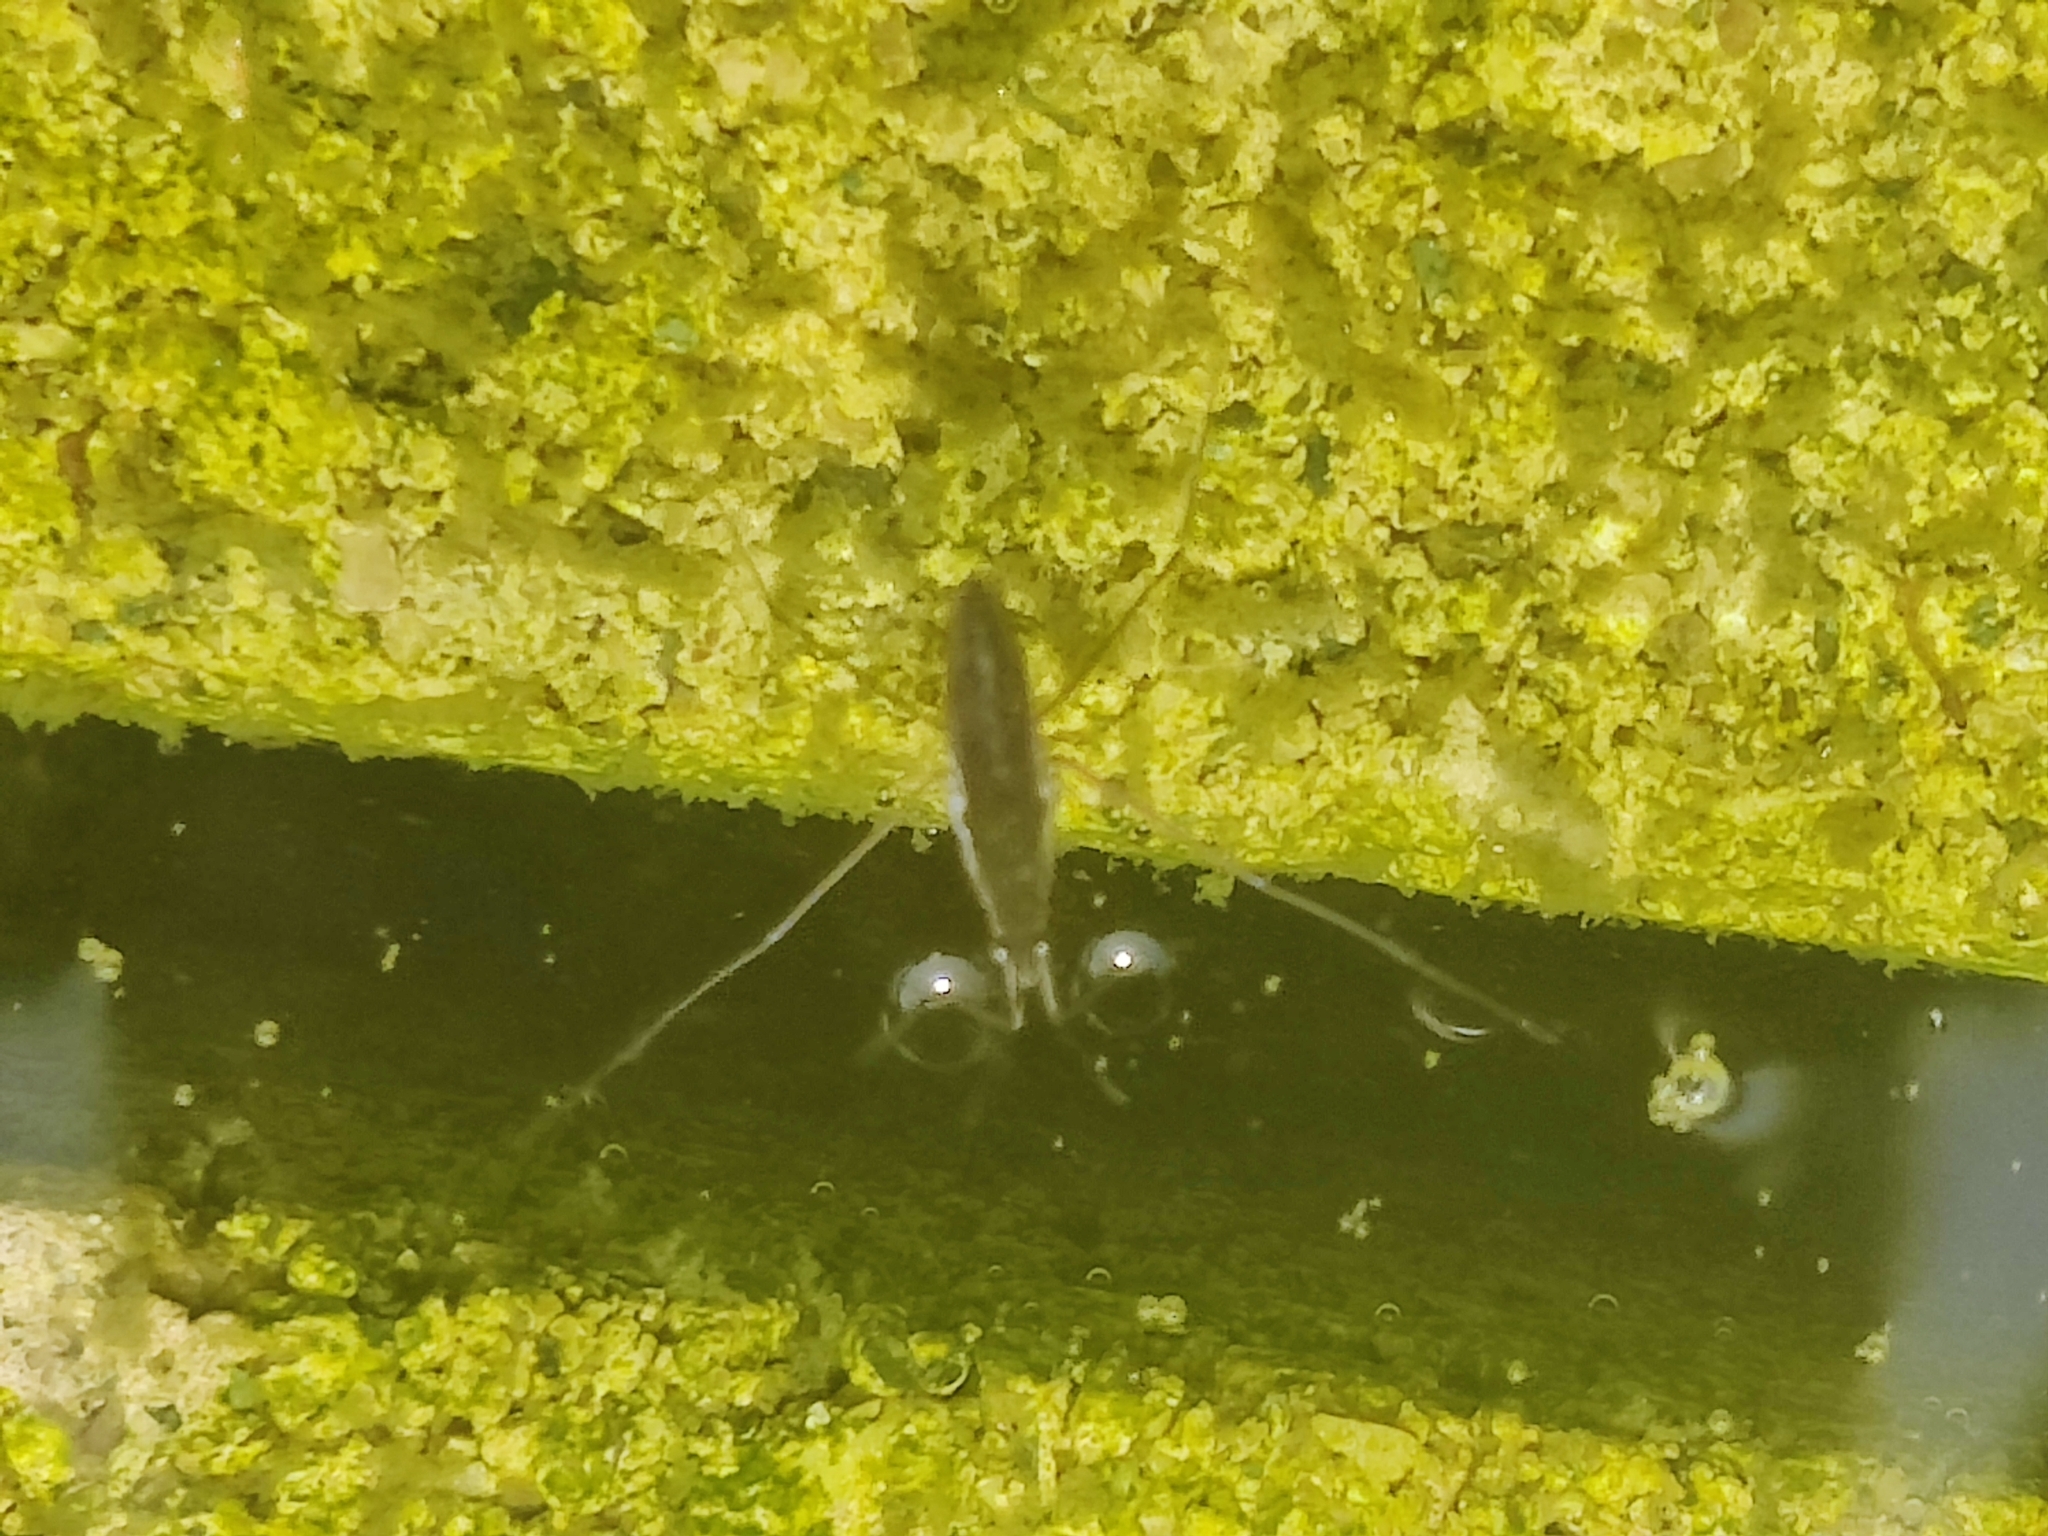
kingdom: Animalia
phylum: Arthropoda
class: Insecta
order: Hemiptera
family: Gerridae
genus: Gerris
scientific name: Gerris
